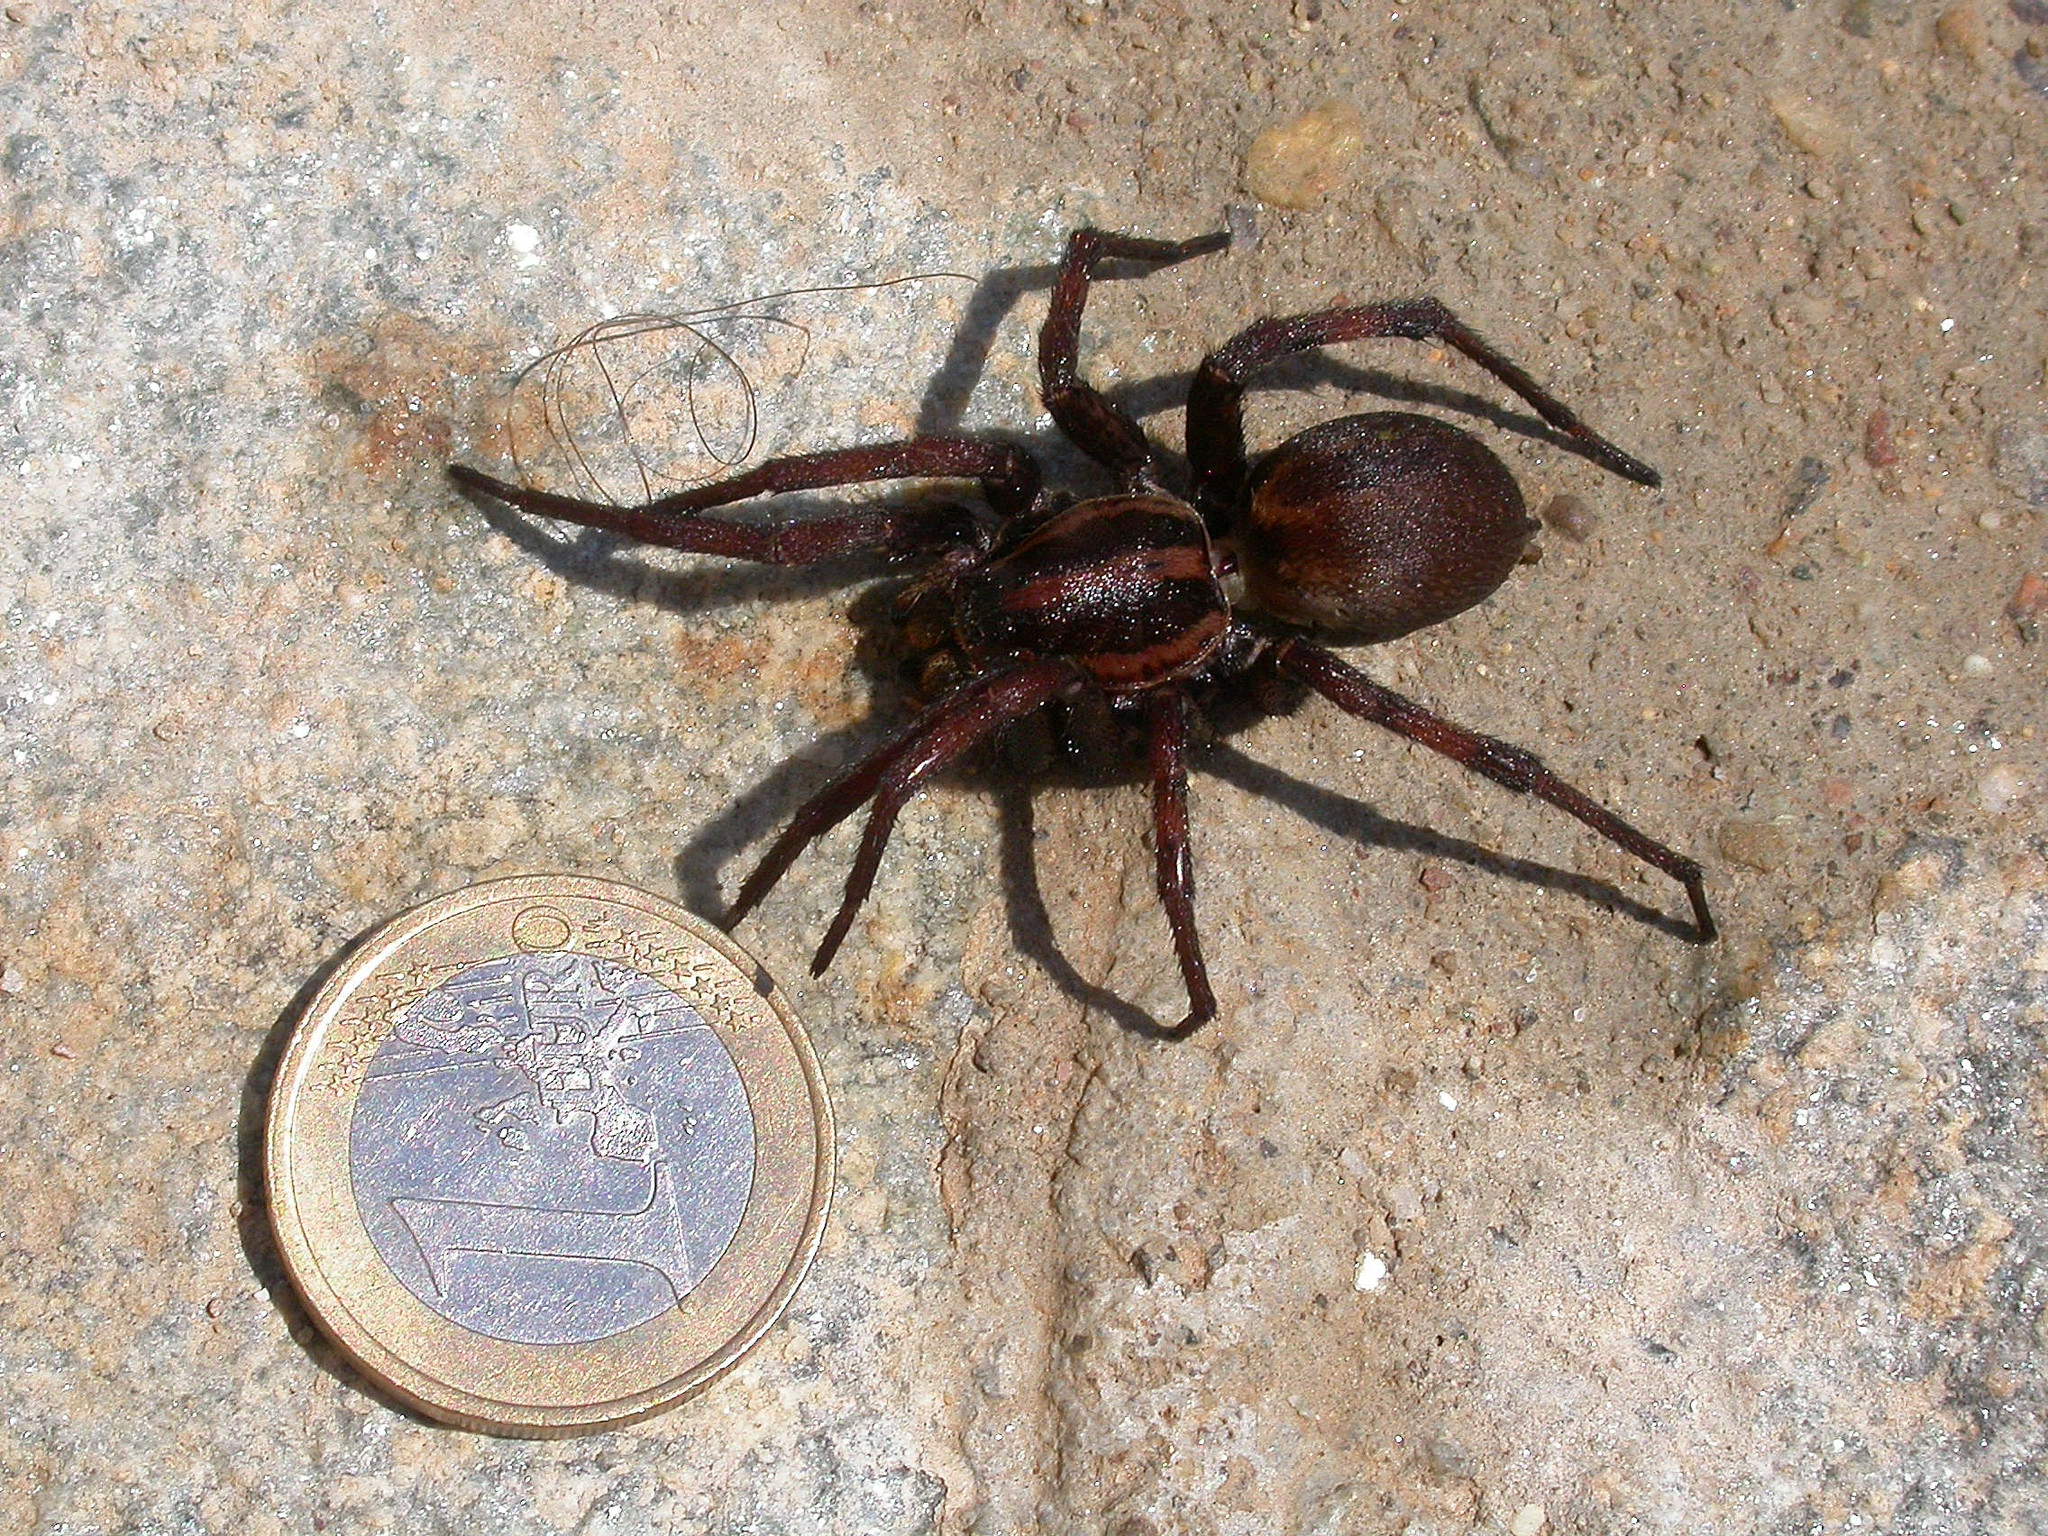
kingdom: Animalia
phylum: Arthropoda
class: Arachnida
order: Araneae
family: Lycosidae
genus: Hogna
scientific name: Hogna radiata
